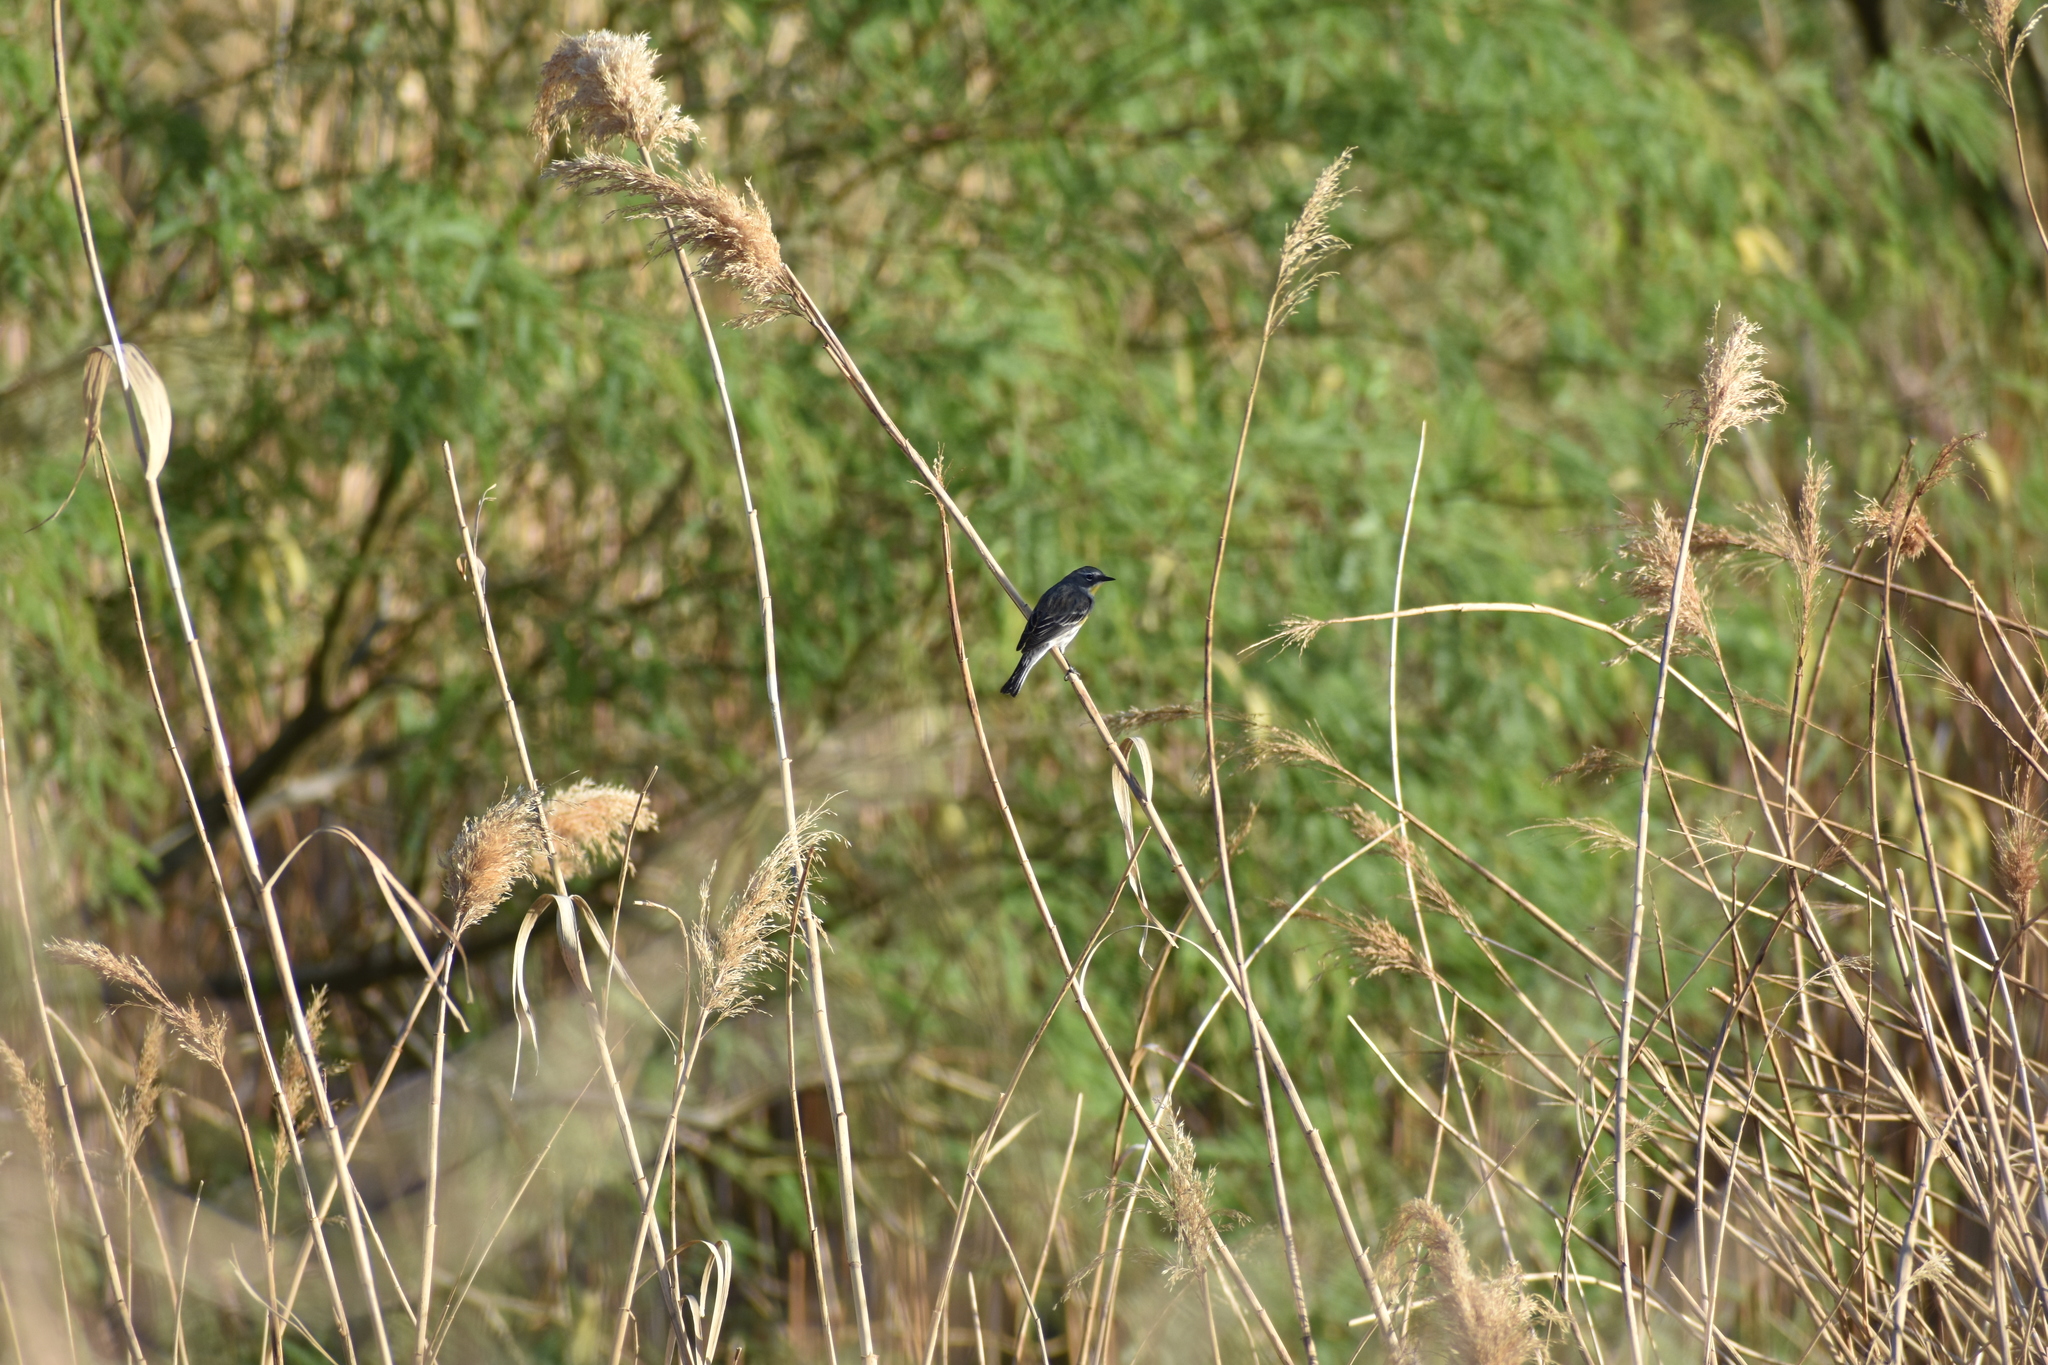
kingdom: Animalia
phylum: Chordata
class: Aves
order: Passeriformes
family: Parulidae
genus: Setophaga
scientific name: Setophaga coronata
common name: Myrtle warbler
